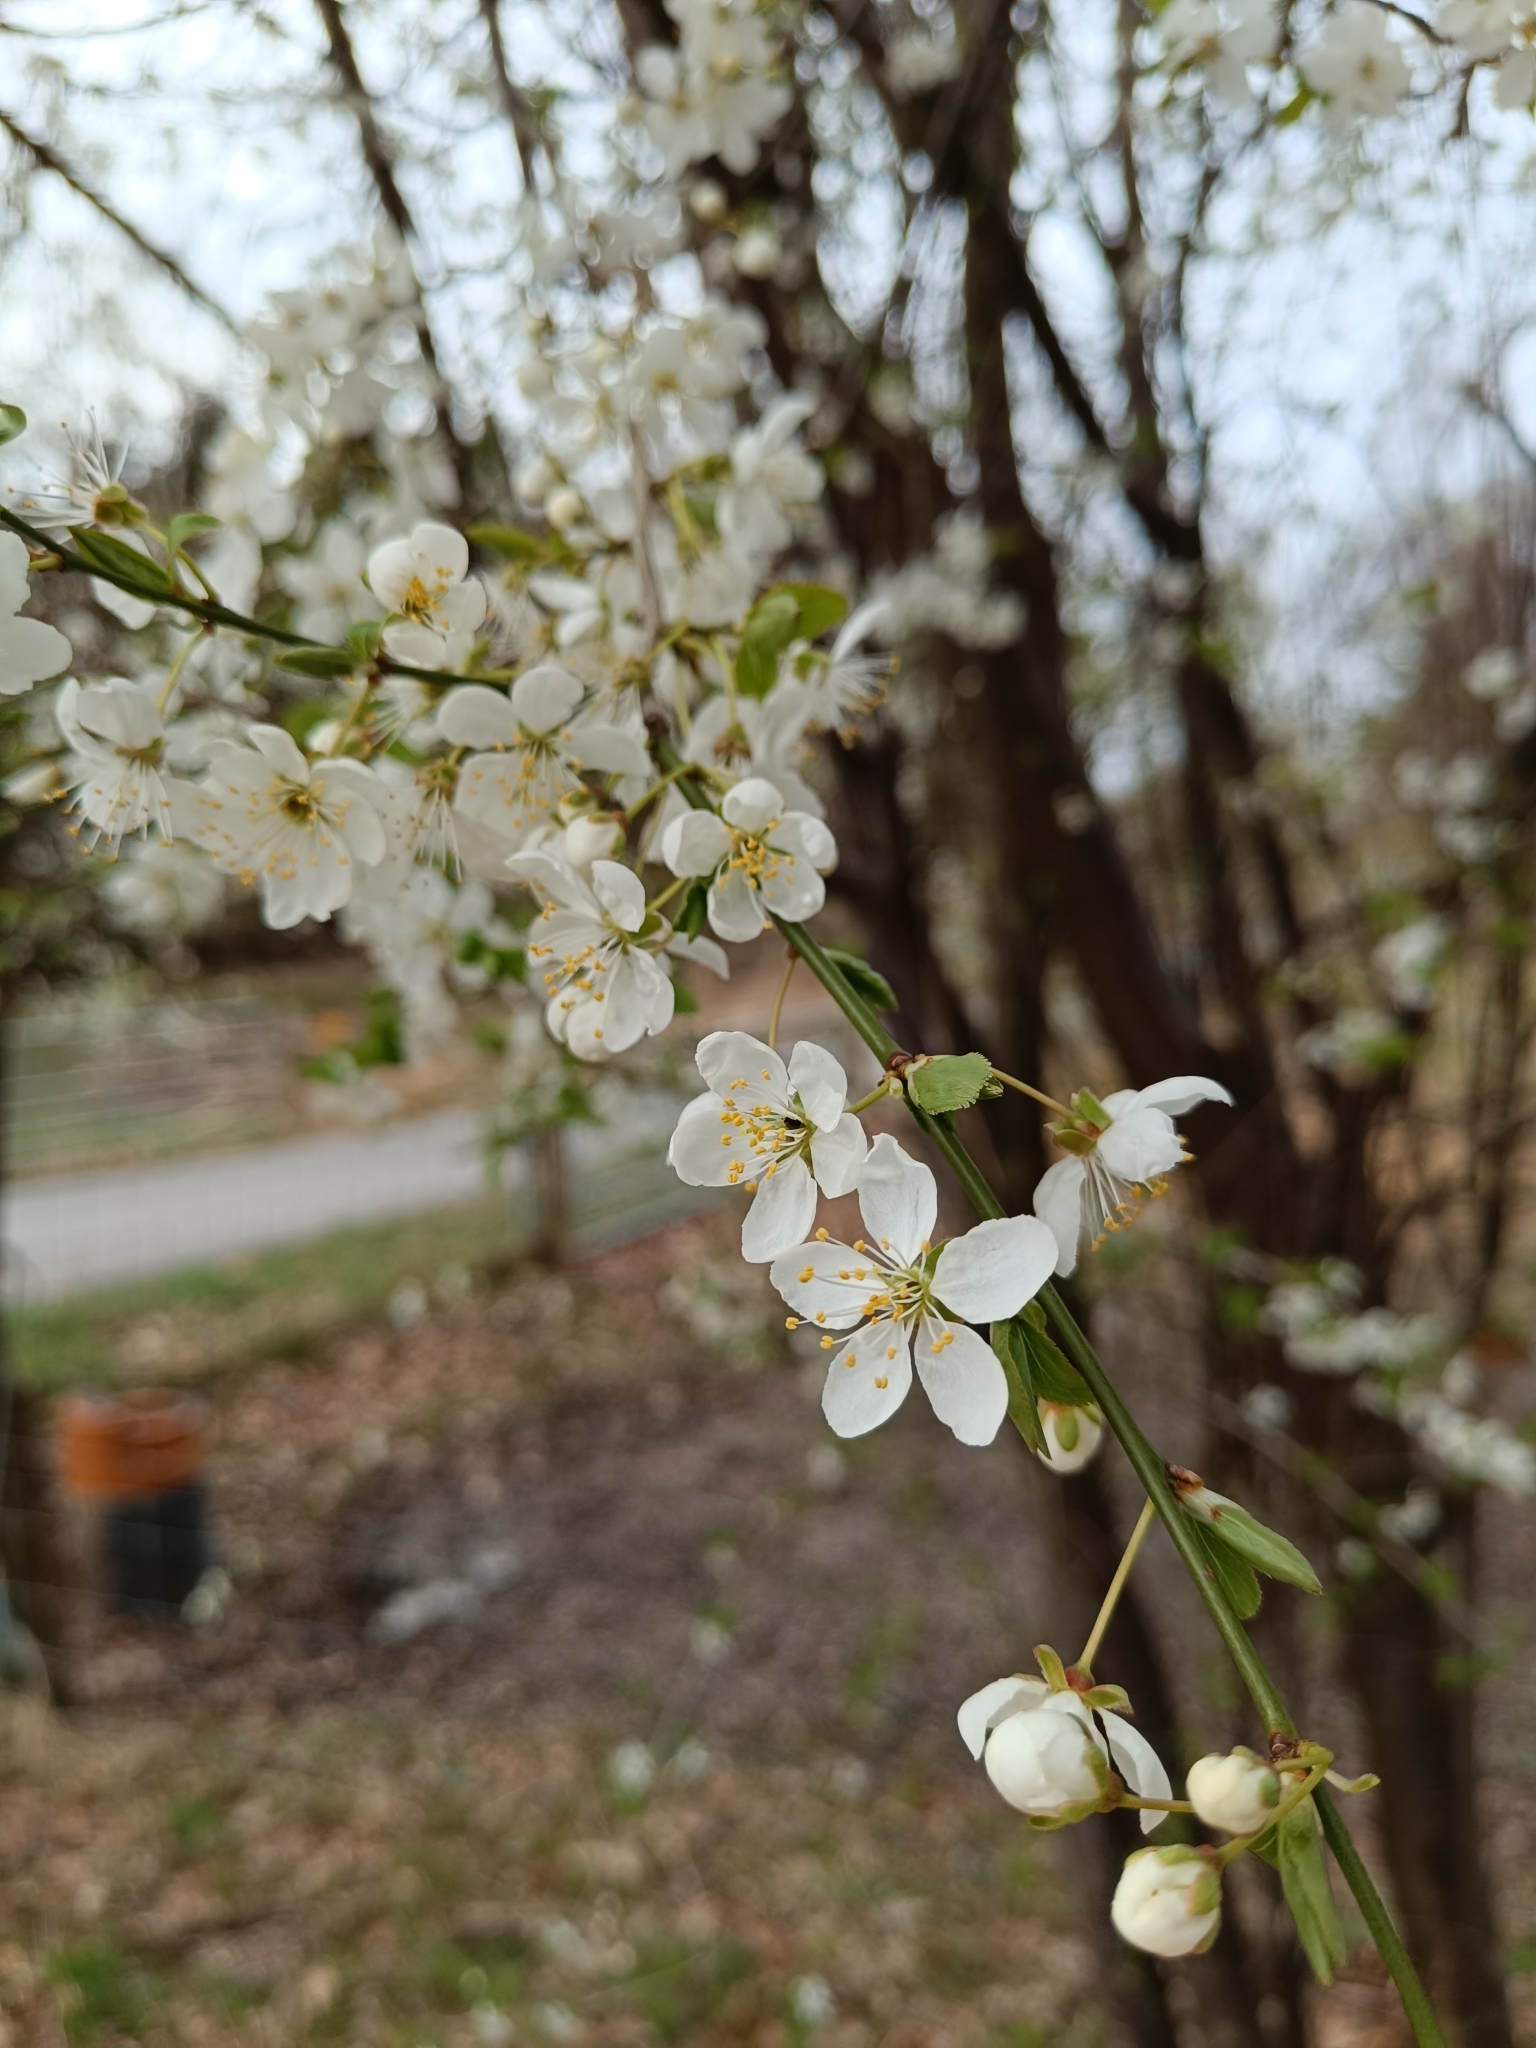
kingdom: Plantae
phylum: Tracheophyta
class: Magnoliopsida
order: Rosales
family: Rosaceae
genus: Prunus
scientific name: Prunus cerasifera
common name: Cherry plum
